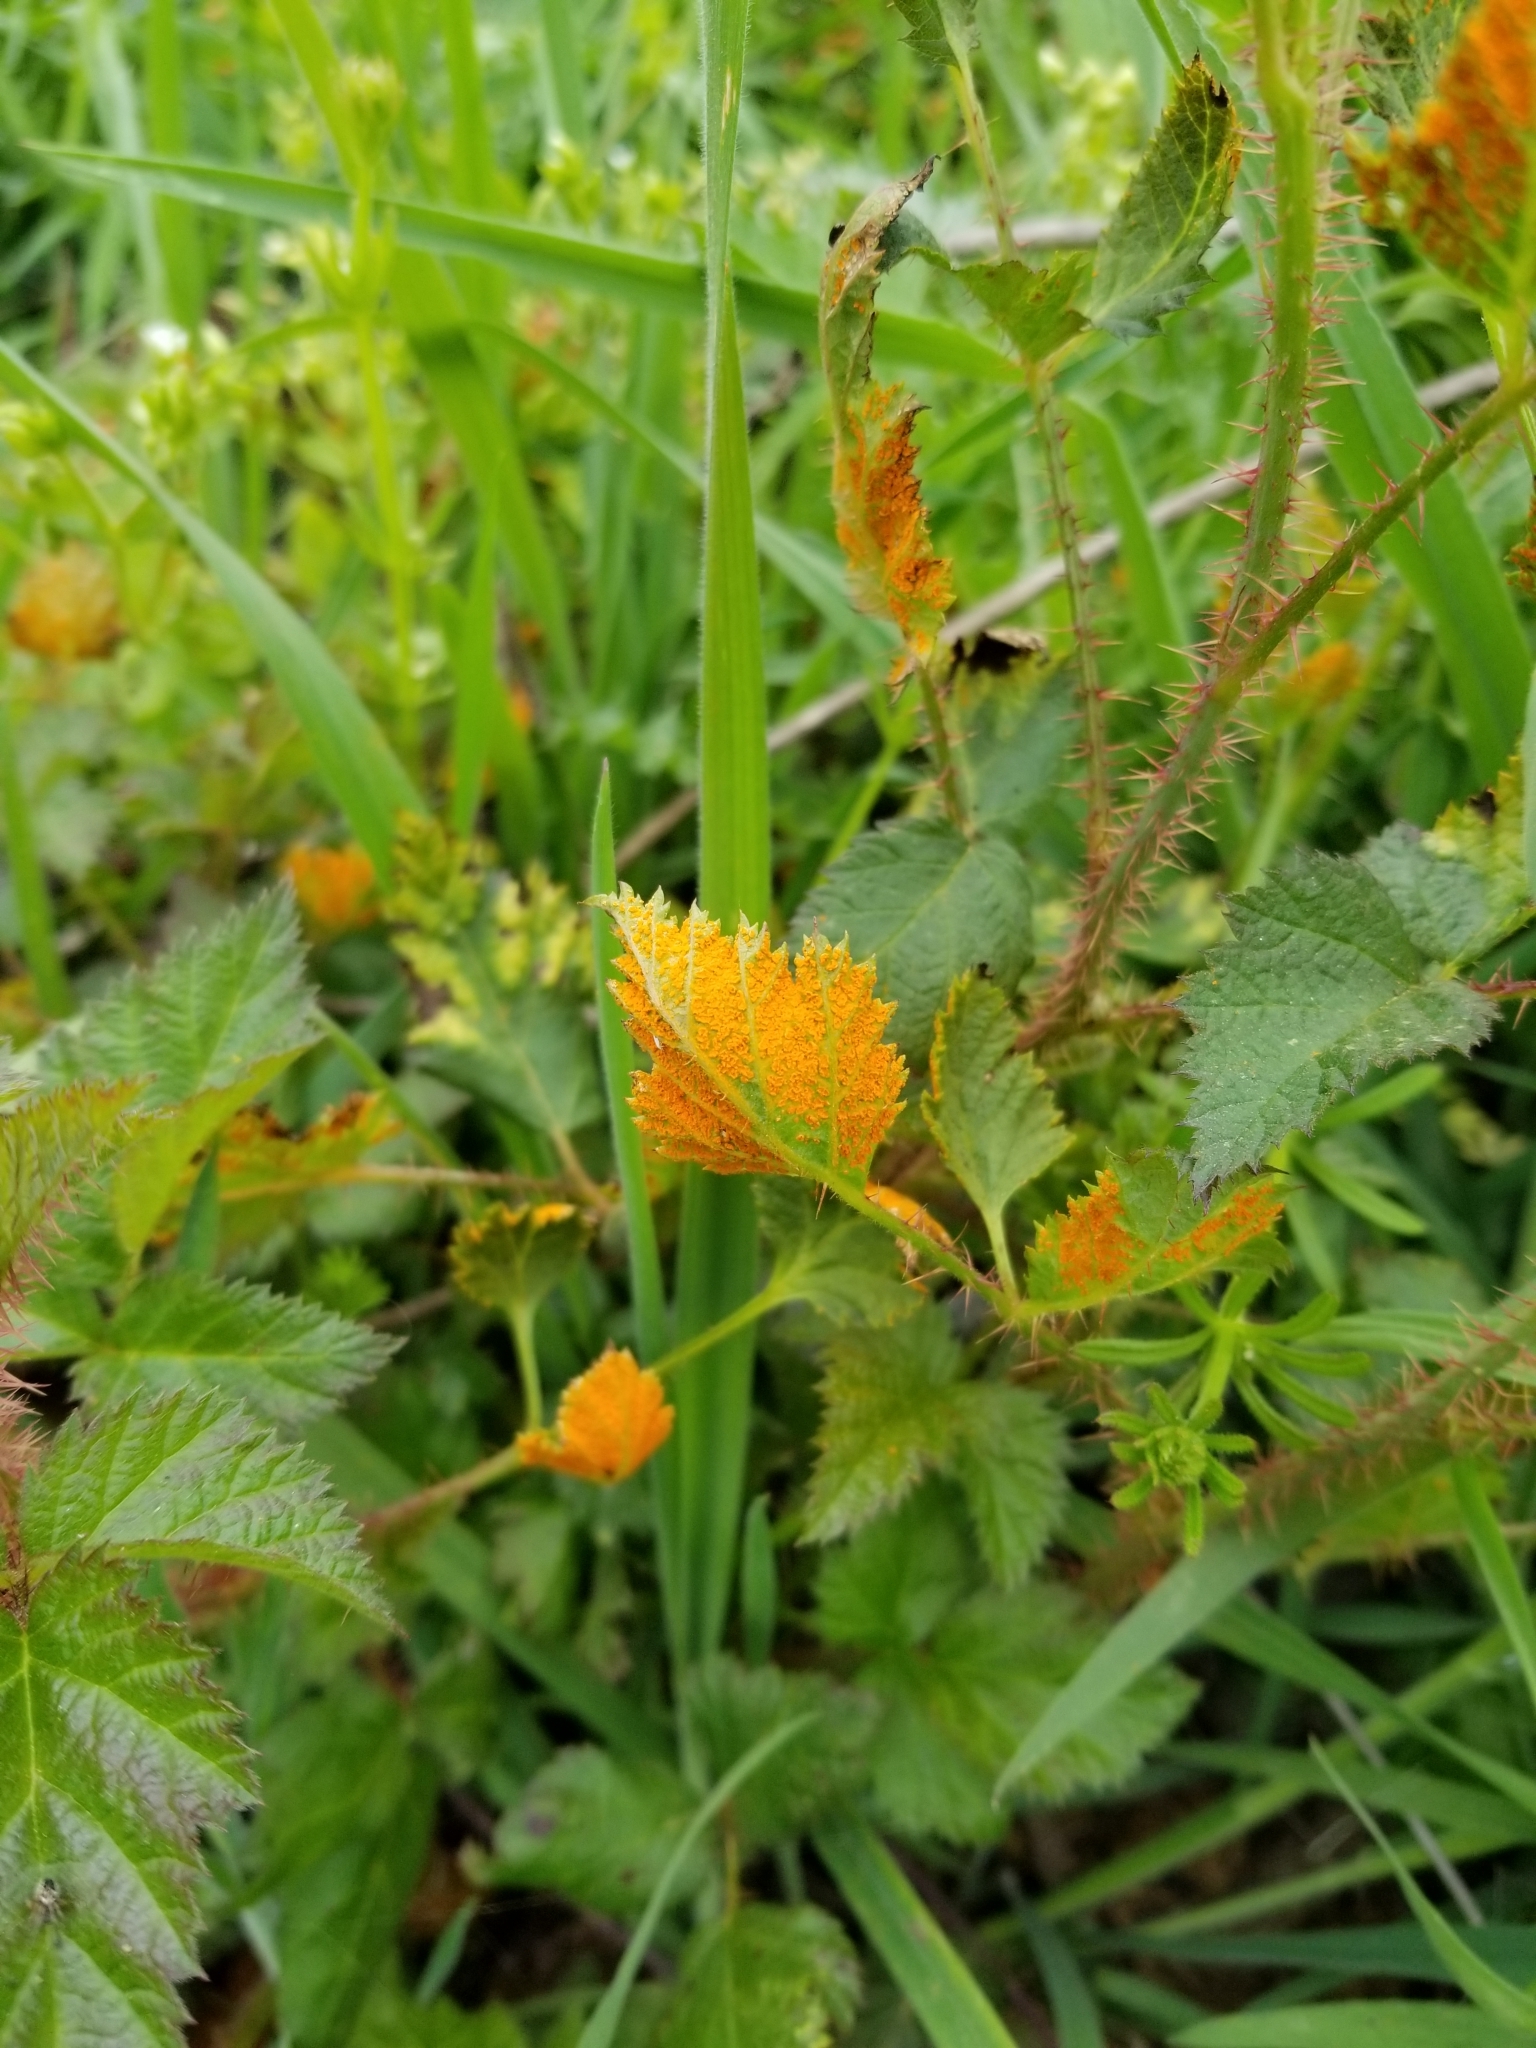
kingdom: Plantae
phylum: Tracheophyta
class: Magnoliopsida
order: Rosales
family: Rosaceae
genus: Rubus
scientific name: Rubus ursinus
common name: Pacific blackberry
